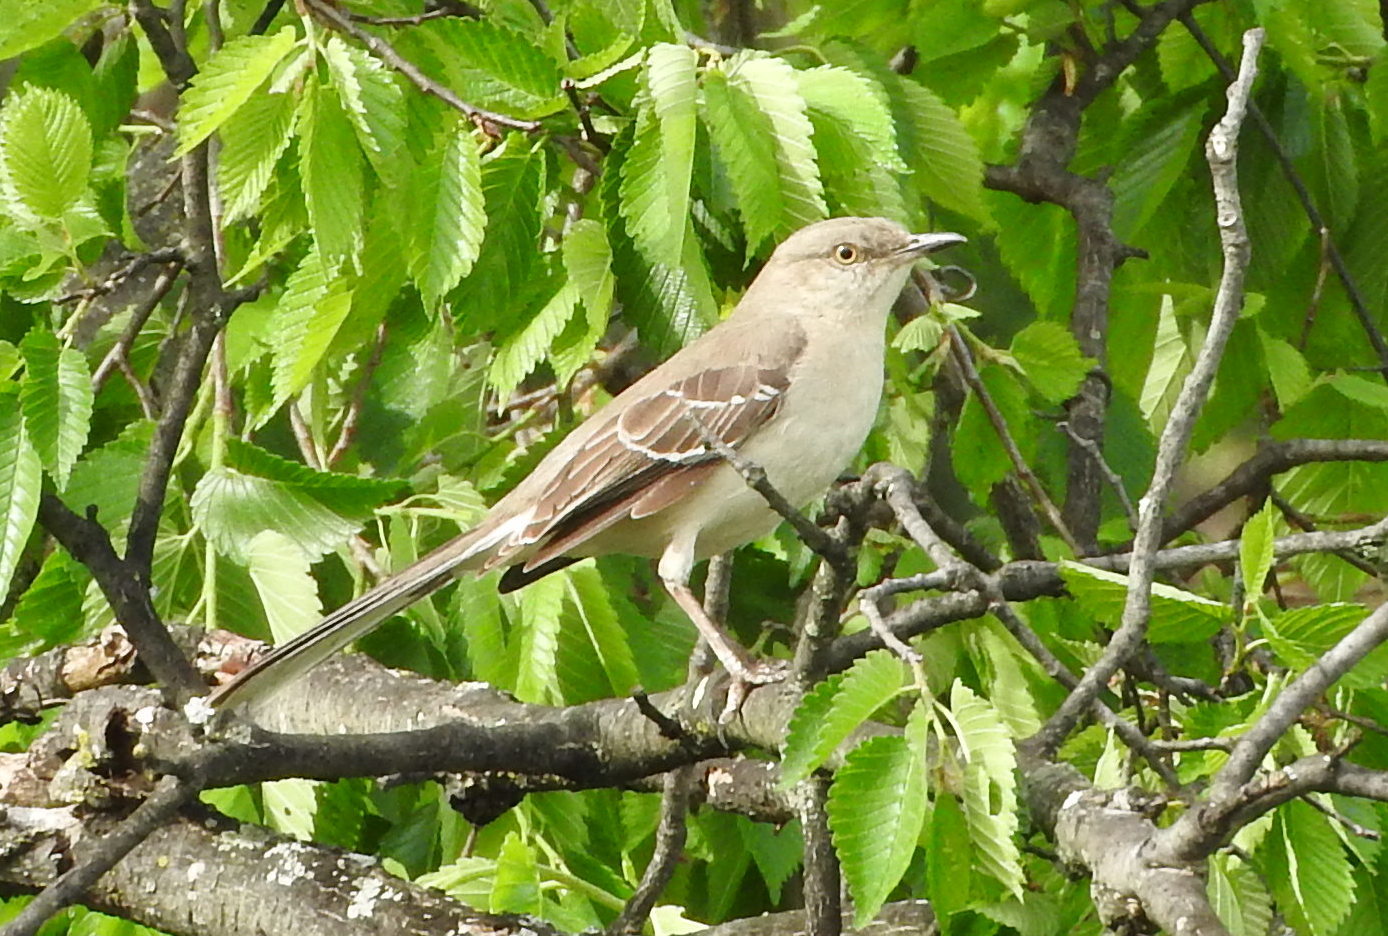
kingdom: Animalia
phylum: Chordata
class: Aves
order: Passeriformes
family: Mimidae
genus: Mimus
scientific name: Mimus polyglottos
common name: Northern mockingbird
